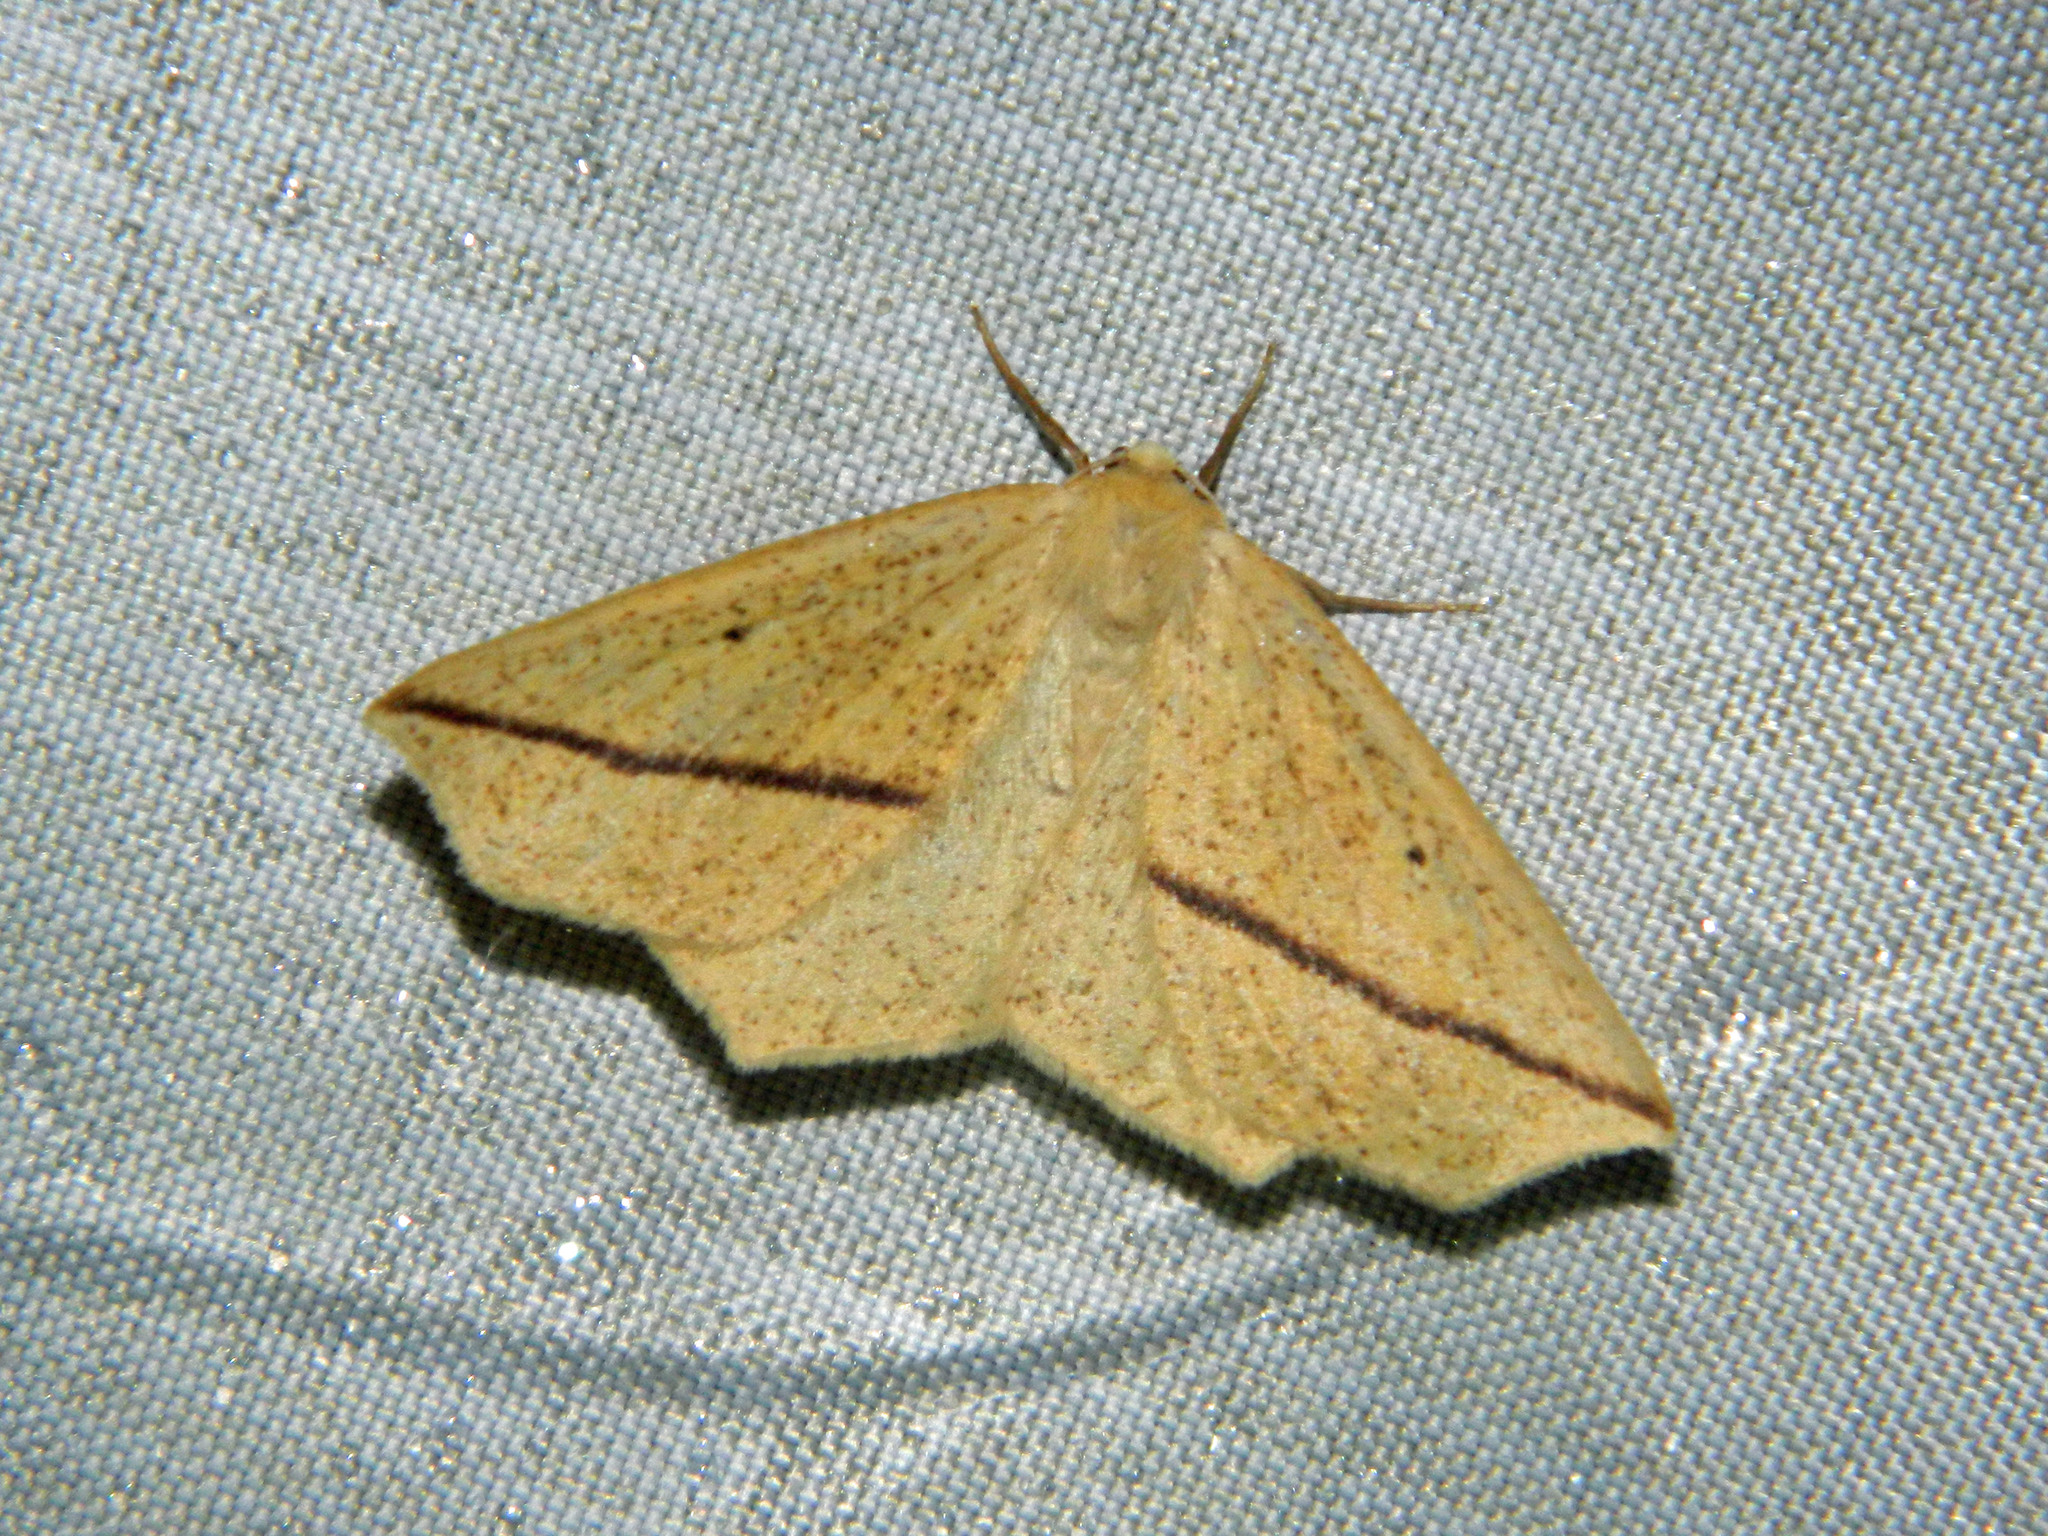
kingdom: Animalia
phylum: Arthropoda
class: Insecta
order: Lepidoptera
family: Geometridae
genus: Tetracis
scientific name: Tetracis crocallata
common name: Yellow slant-line
